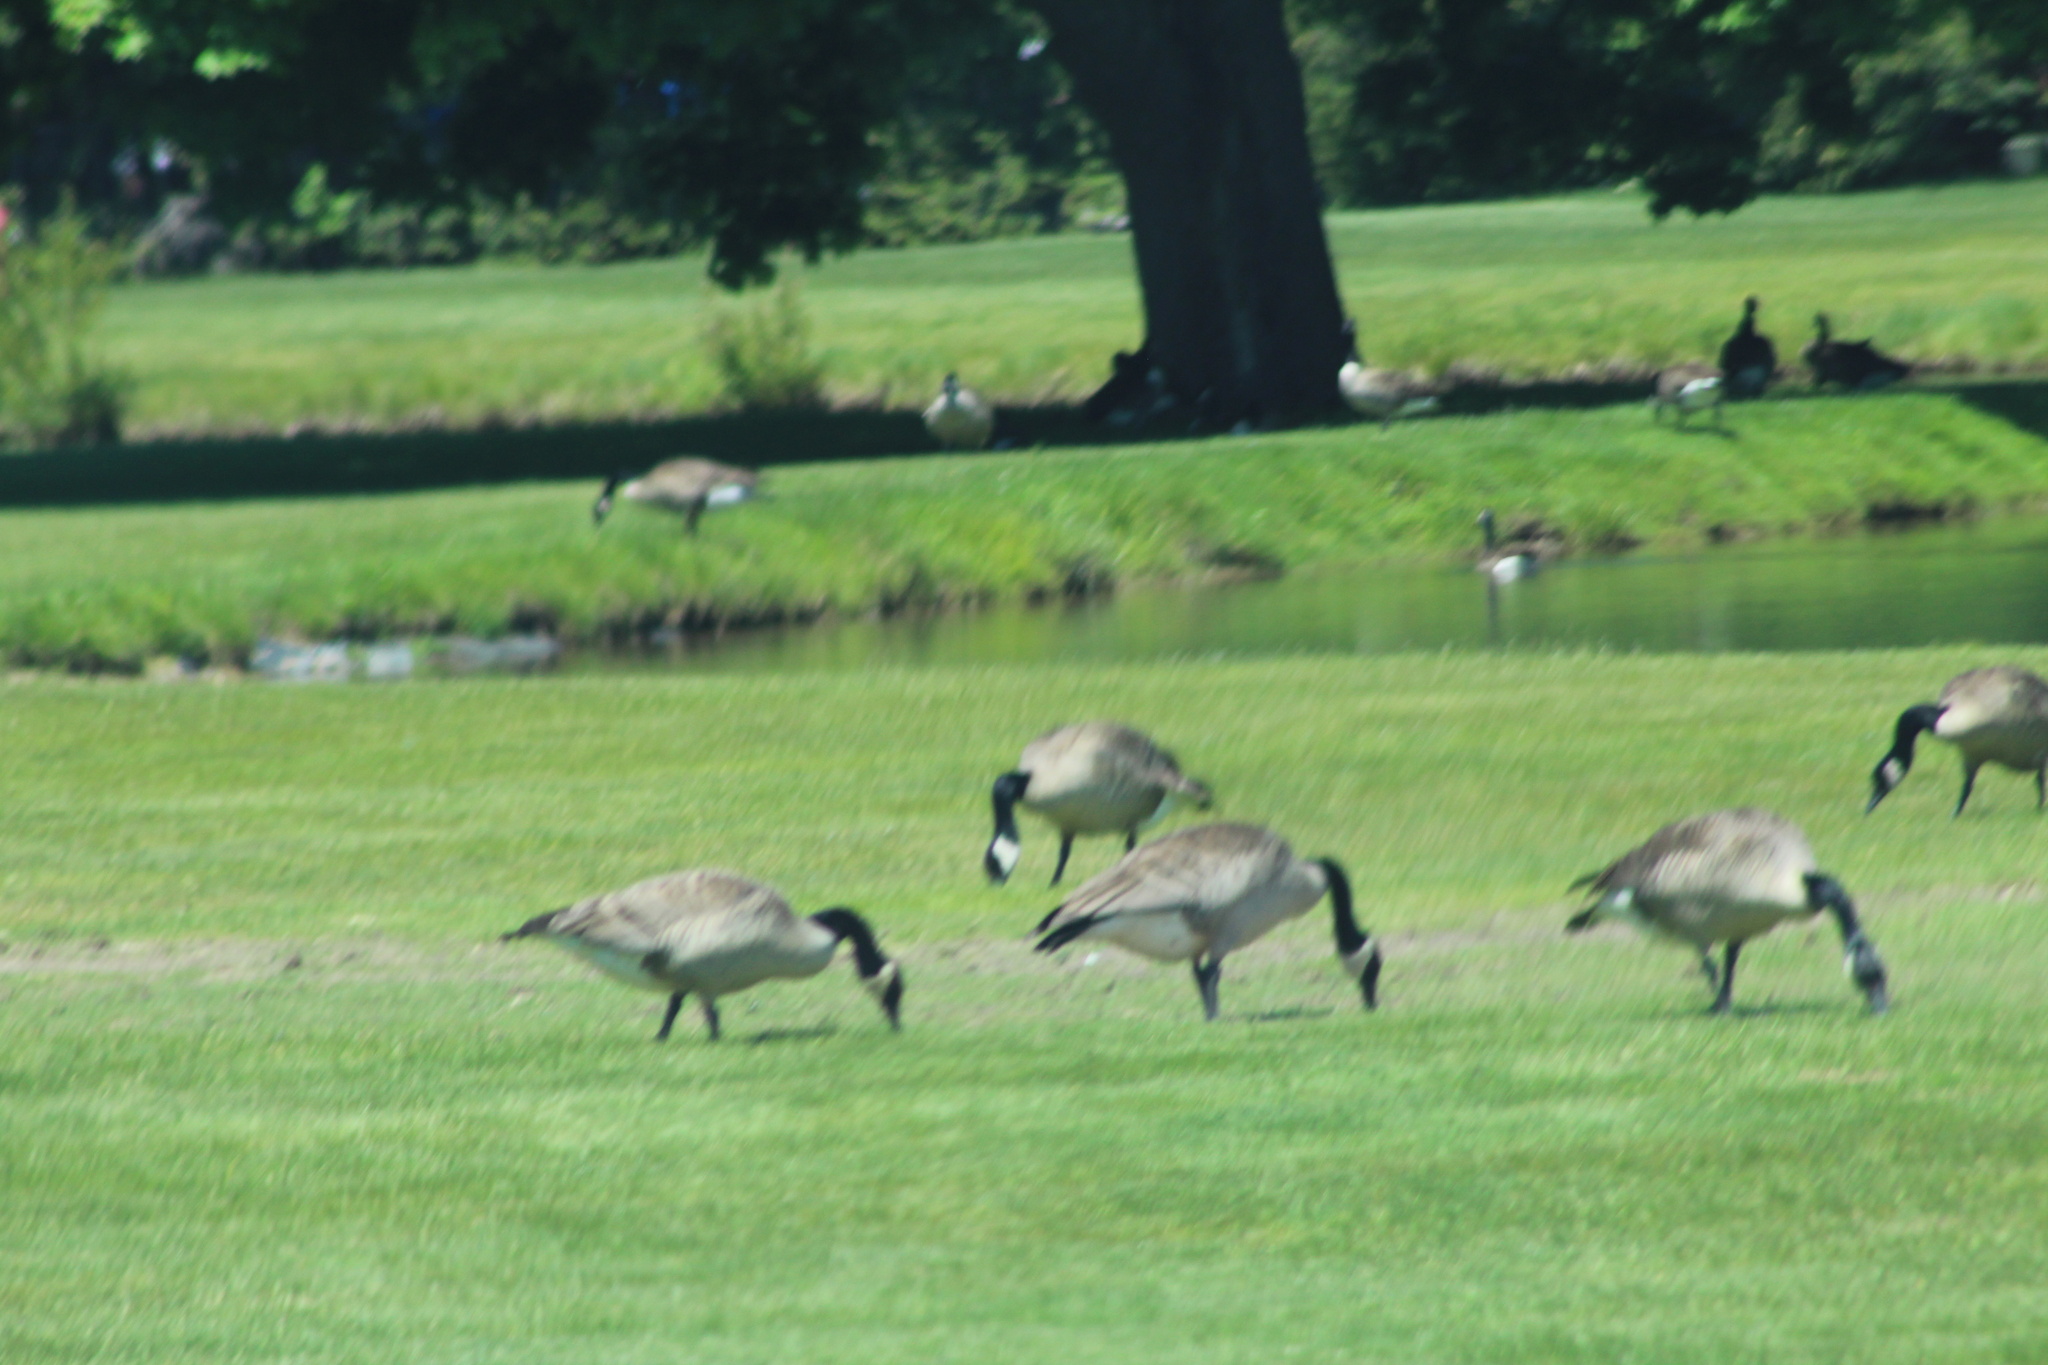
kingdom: Animalia
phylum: Chordata
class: Aves
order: Anseriformes
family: Anatidae
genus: Branta
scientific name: Branta canadensis
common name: Canada goose
